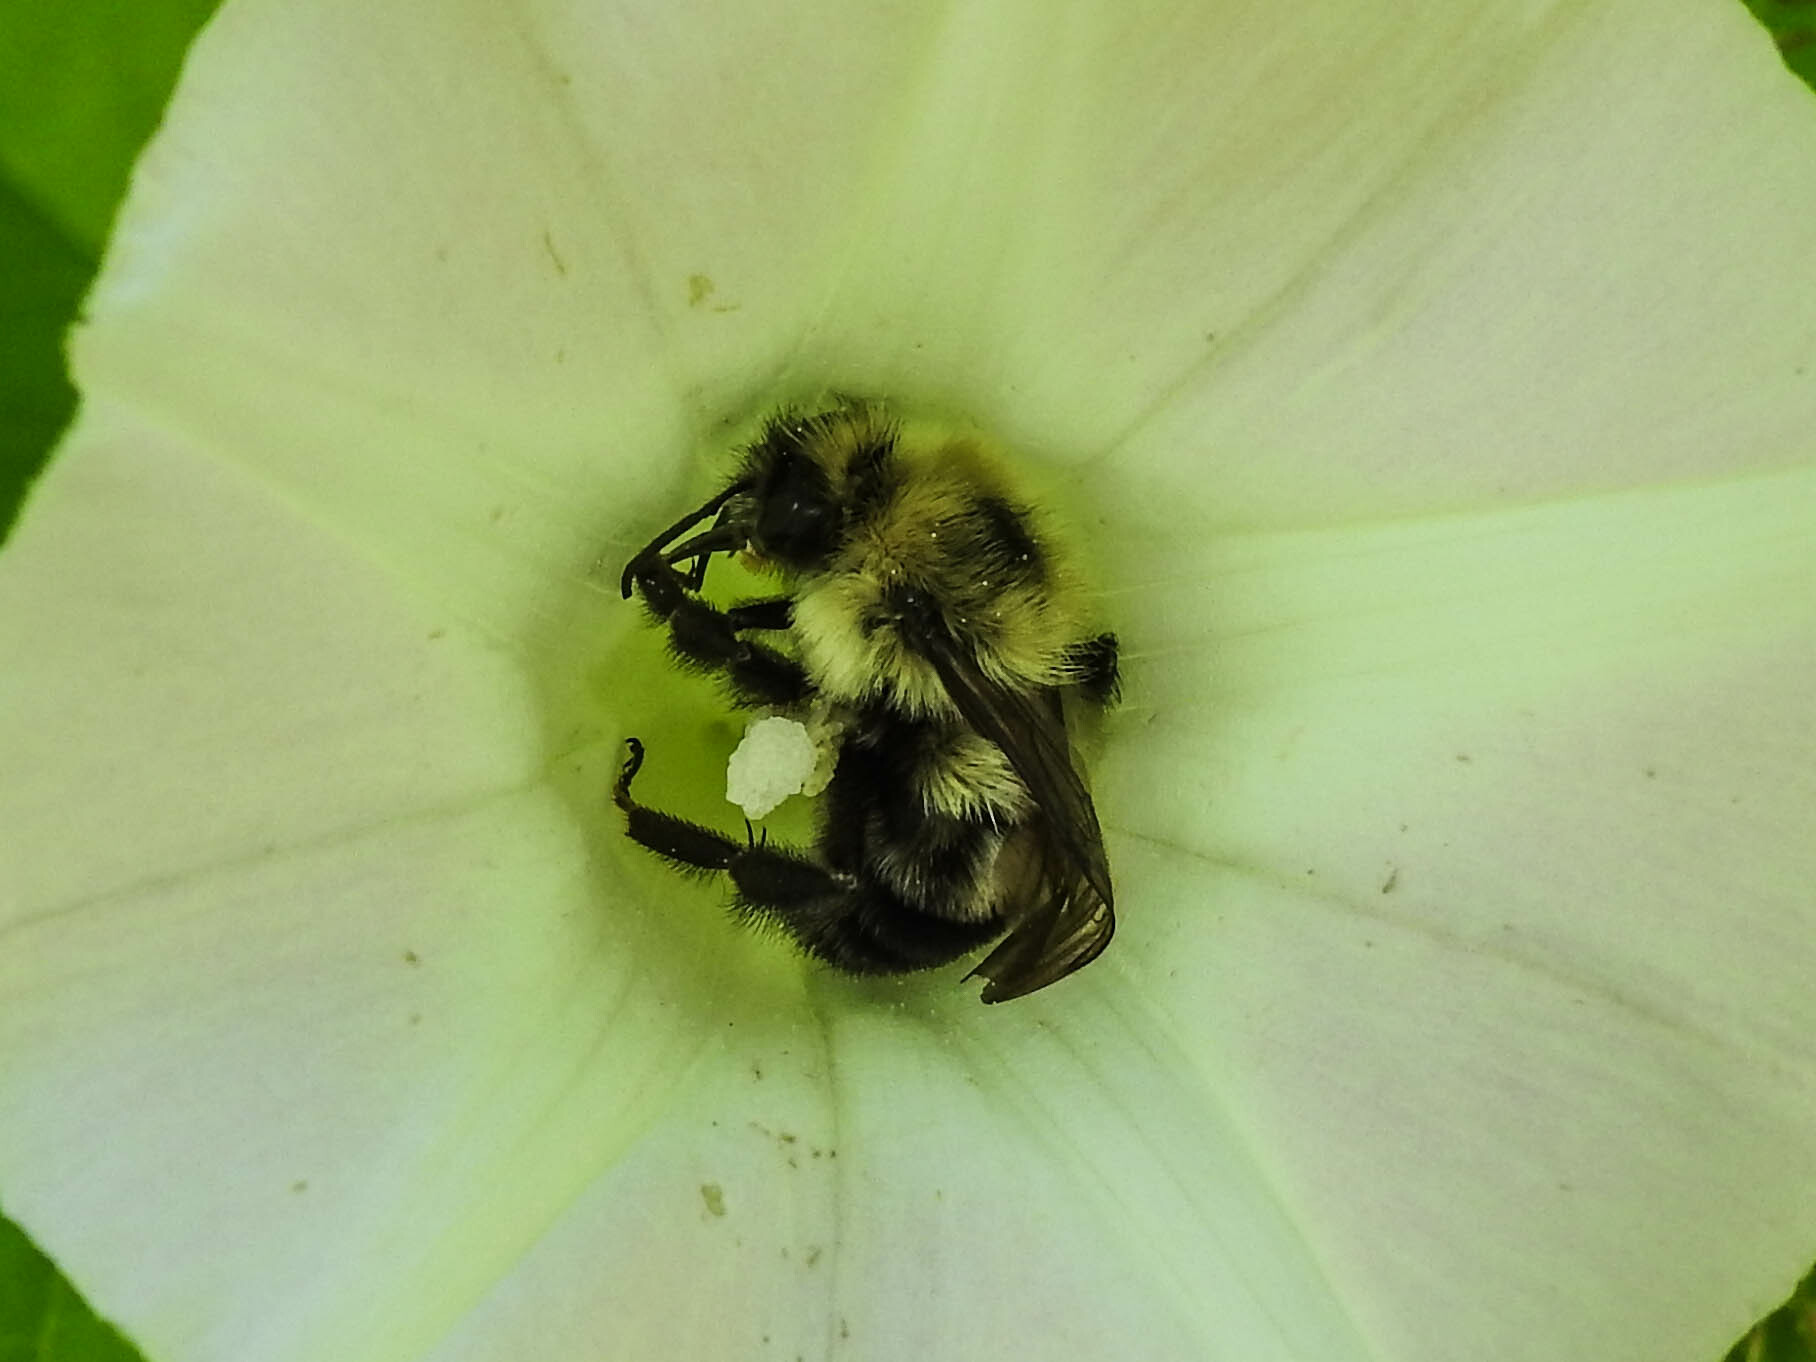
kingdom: Animalia
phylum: Arthropoda
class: Insecta
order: Hymenoptera
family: Apidae
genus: Bombus
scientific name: Bombus bimaculatus
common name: Two-spotted bumble bee
